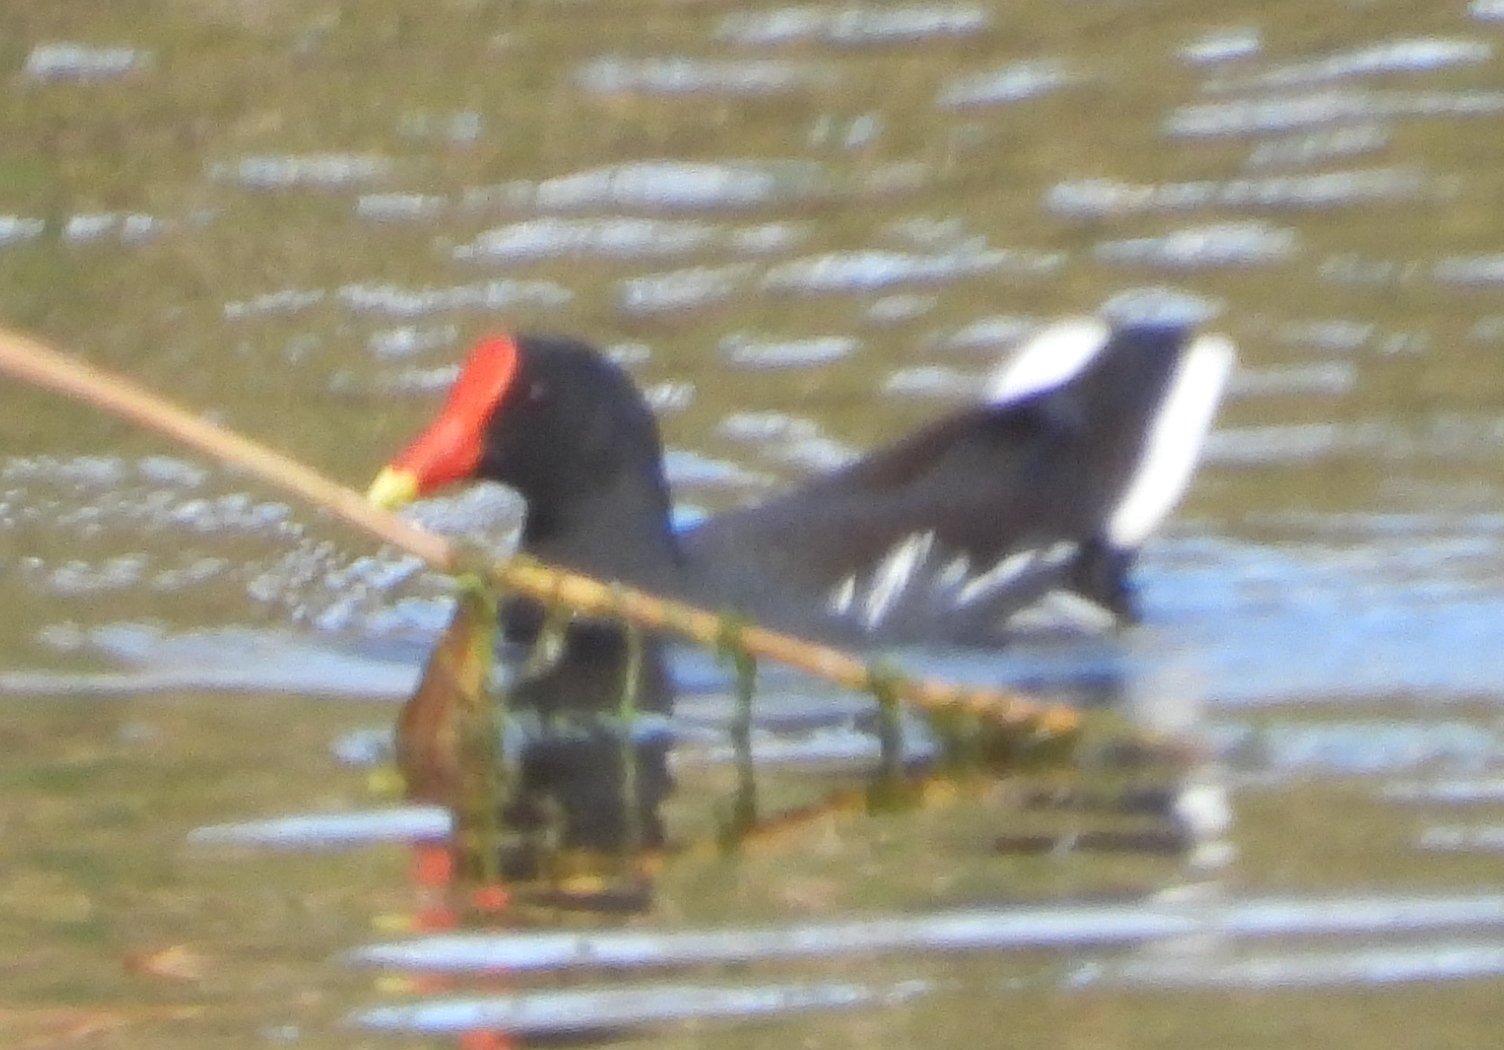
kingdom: Animalia
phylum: Chordata
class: Aves
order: Gruiformes
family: Rallidae
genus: Gallinula
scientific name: Gallinula chloropus
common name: Common moorhen
